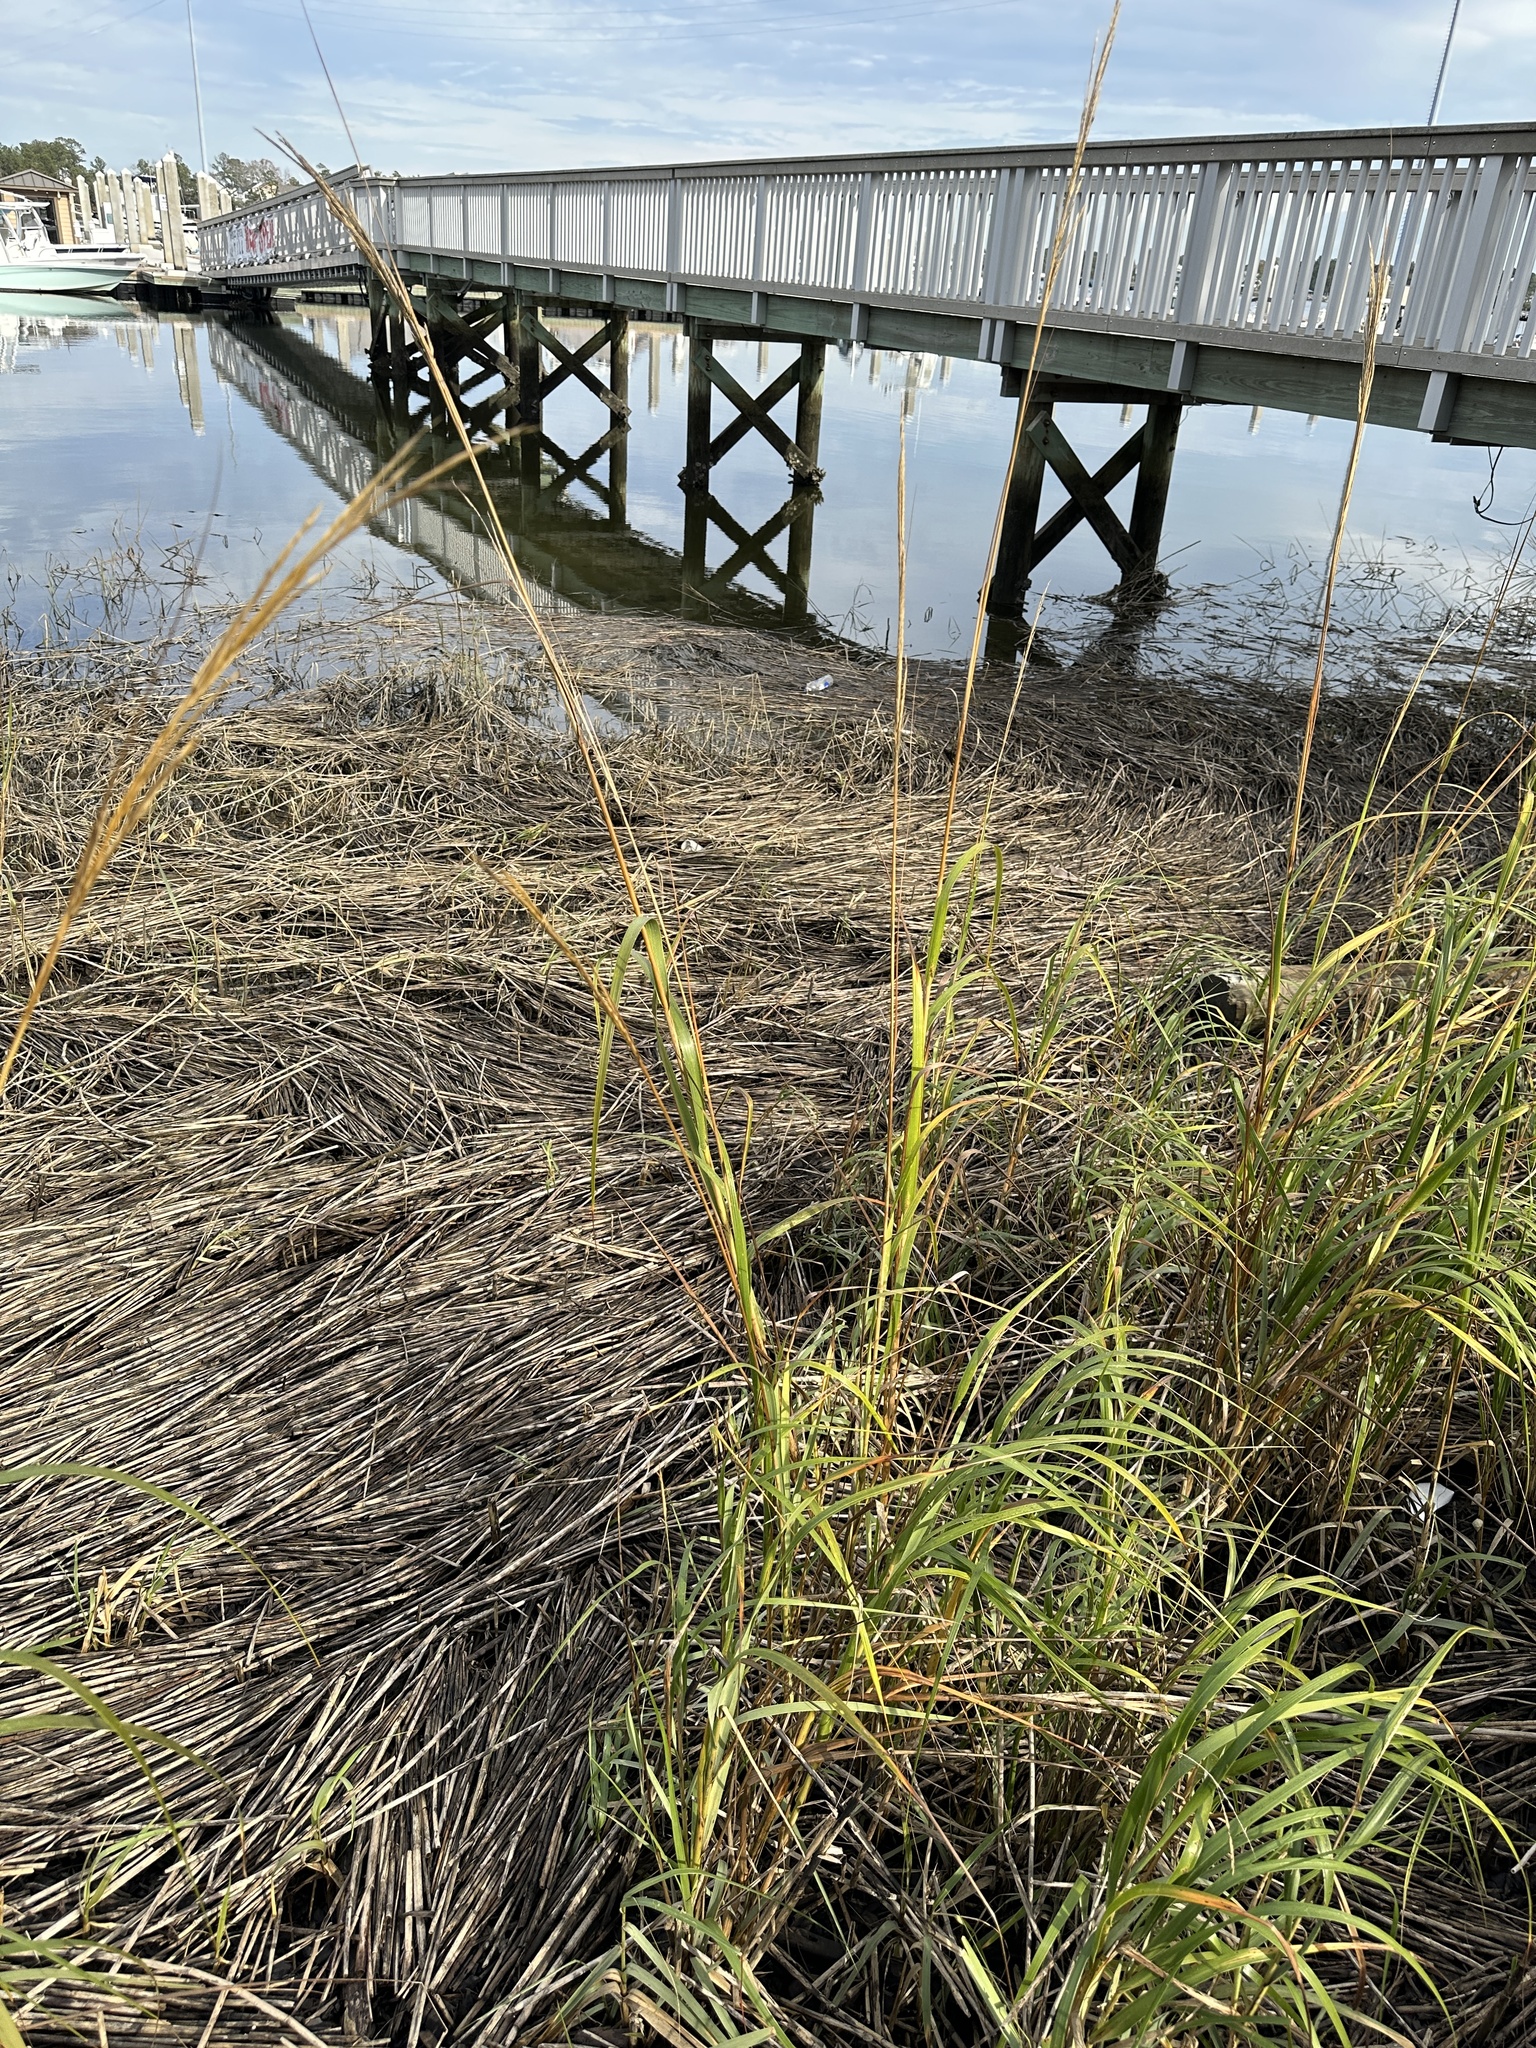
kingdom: Plantae
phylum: Tracheophyta
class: Liliopsida
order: Poales
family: Poaceae
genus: Sporobolus
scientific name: Sporobolus alterniflorus
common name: Atlantic cordgrass
